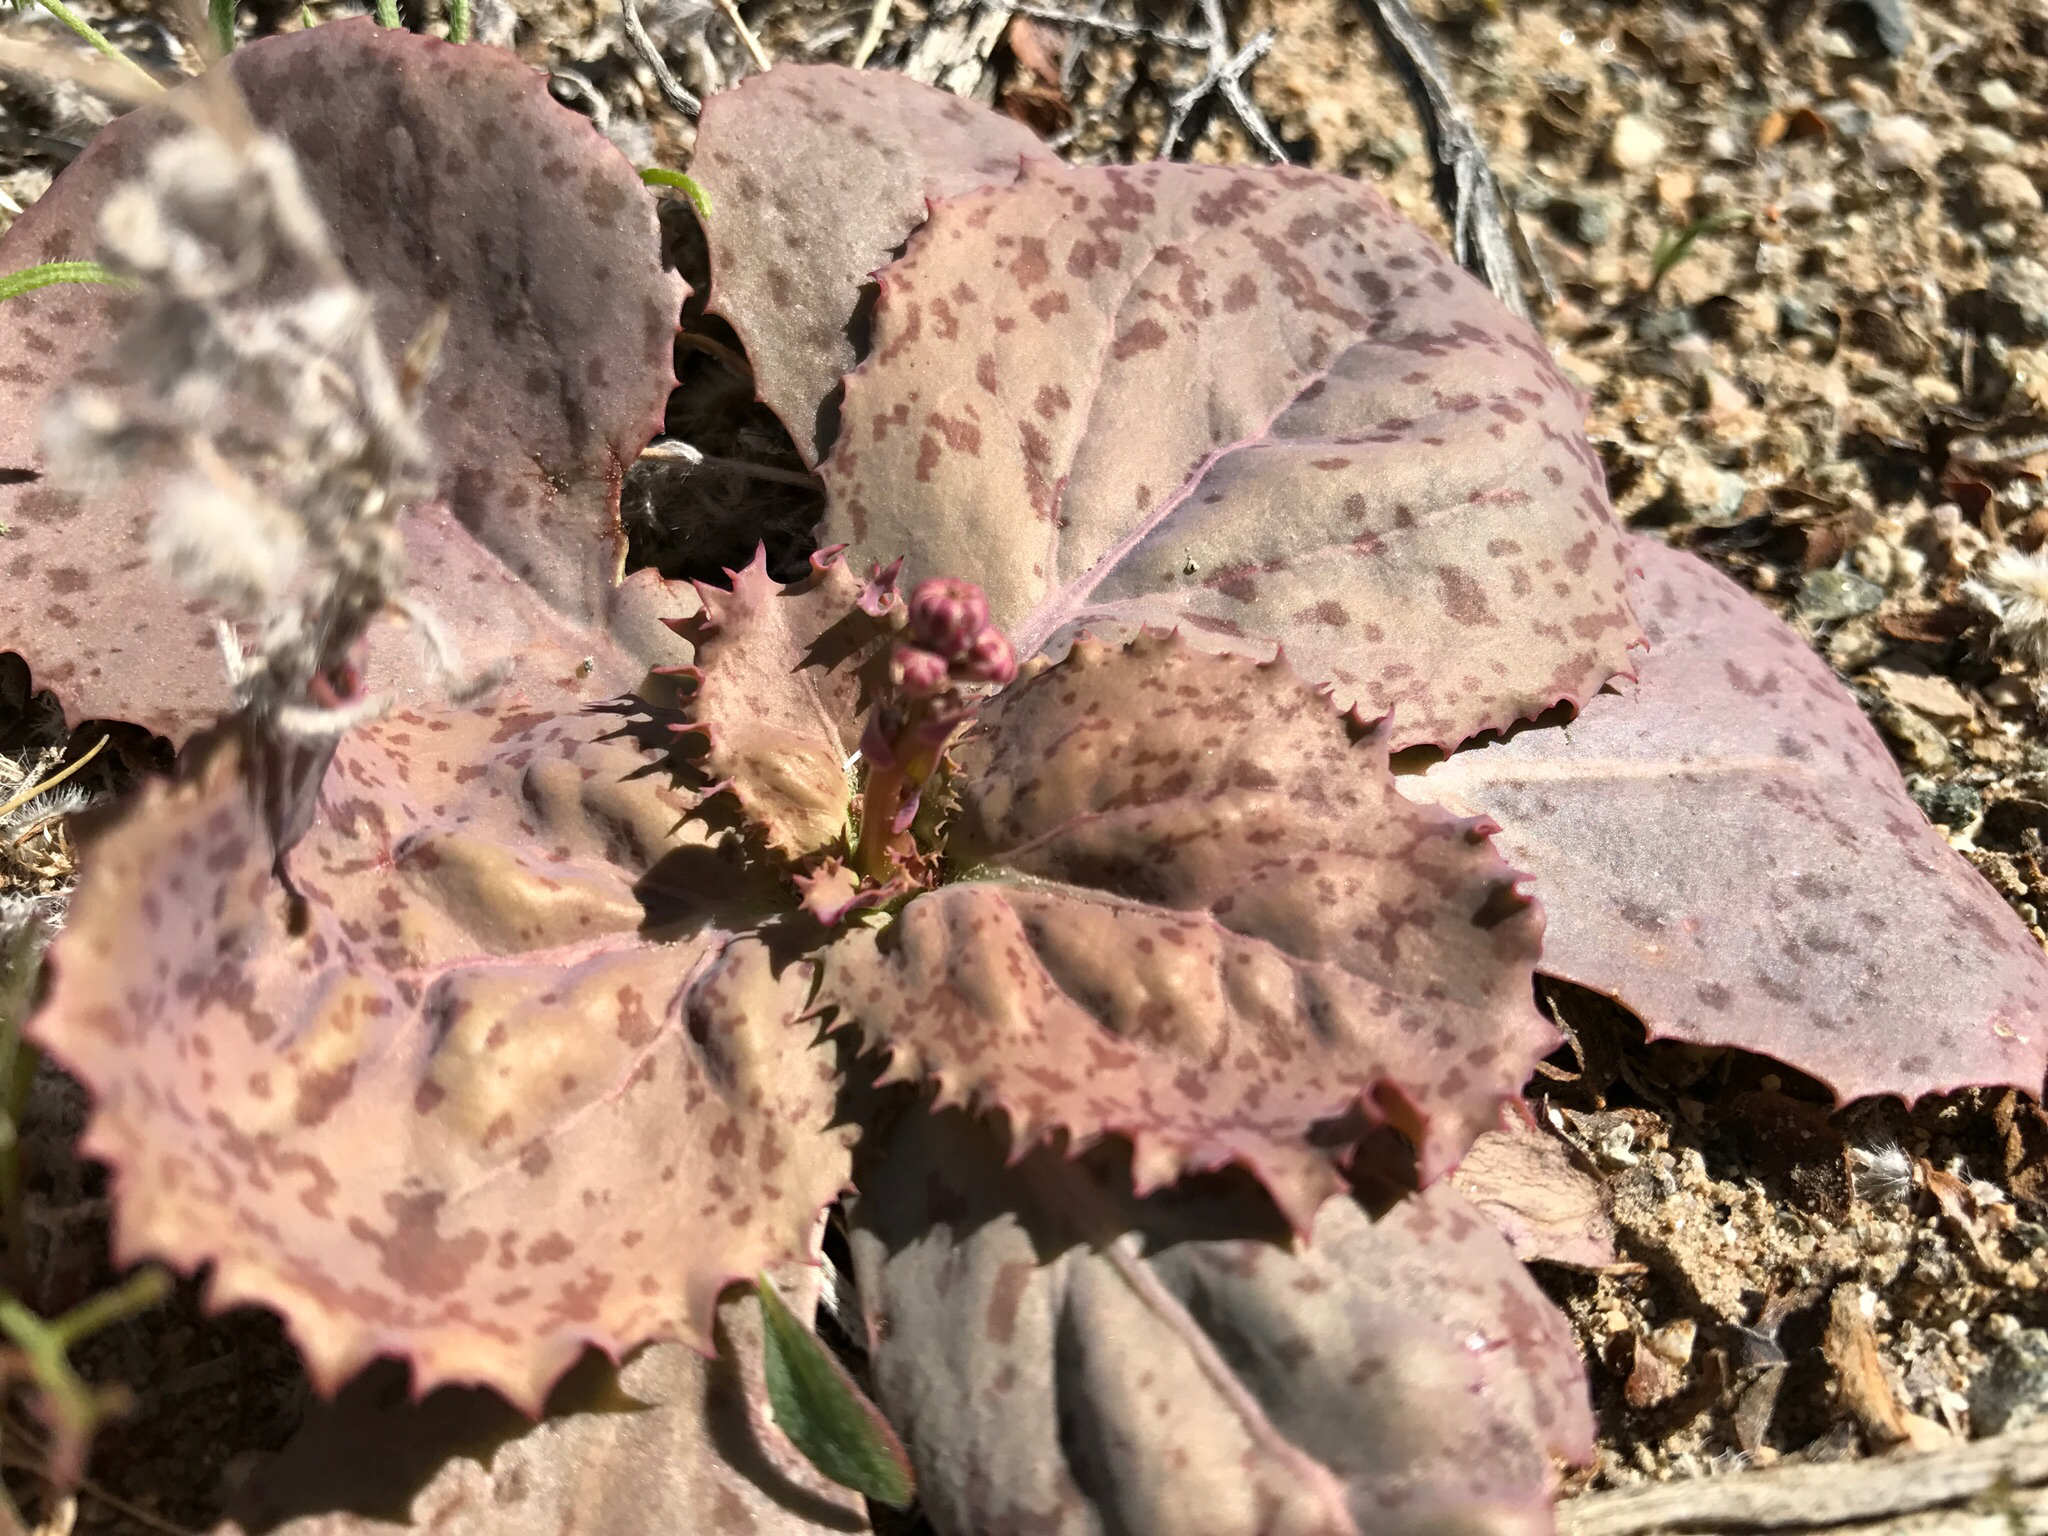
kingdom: Plantae
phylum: Tracheophyta
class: Magnoliopsida
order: Asterales
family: Asteraceae
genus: Atrichoseris
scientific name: Atrichoseris platyphylla
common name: Tobaccoweed
